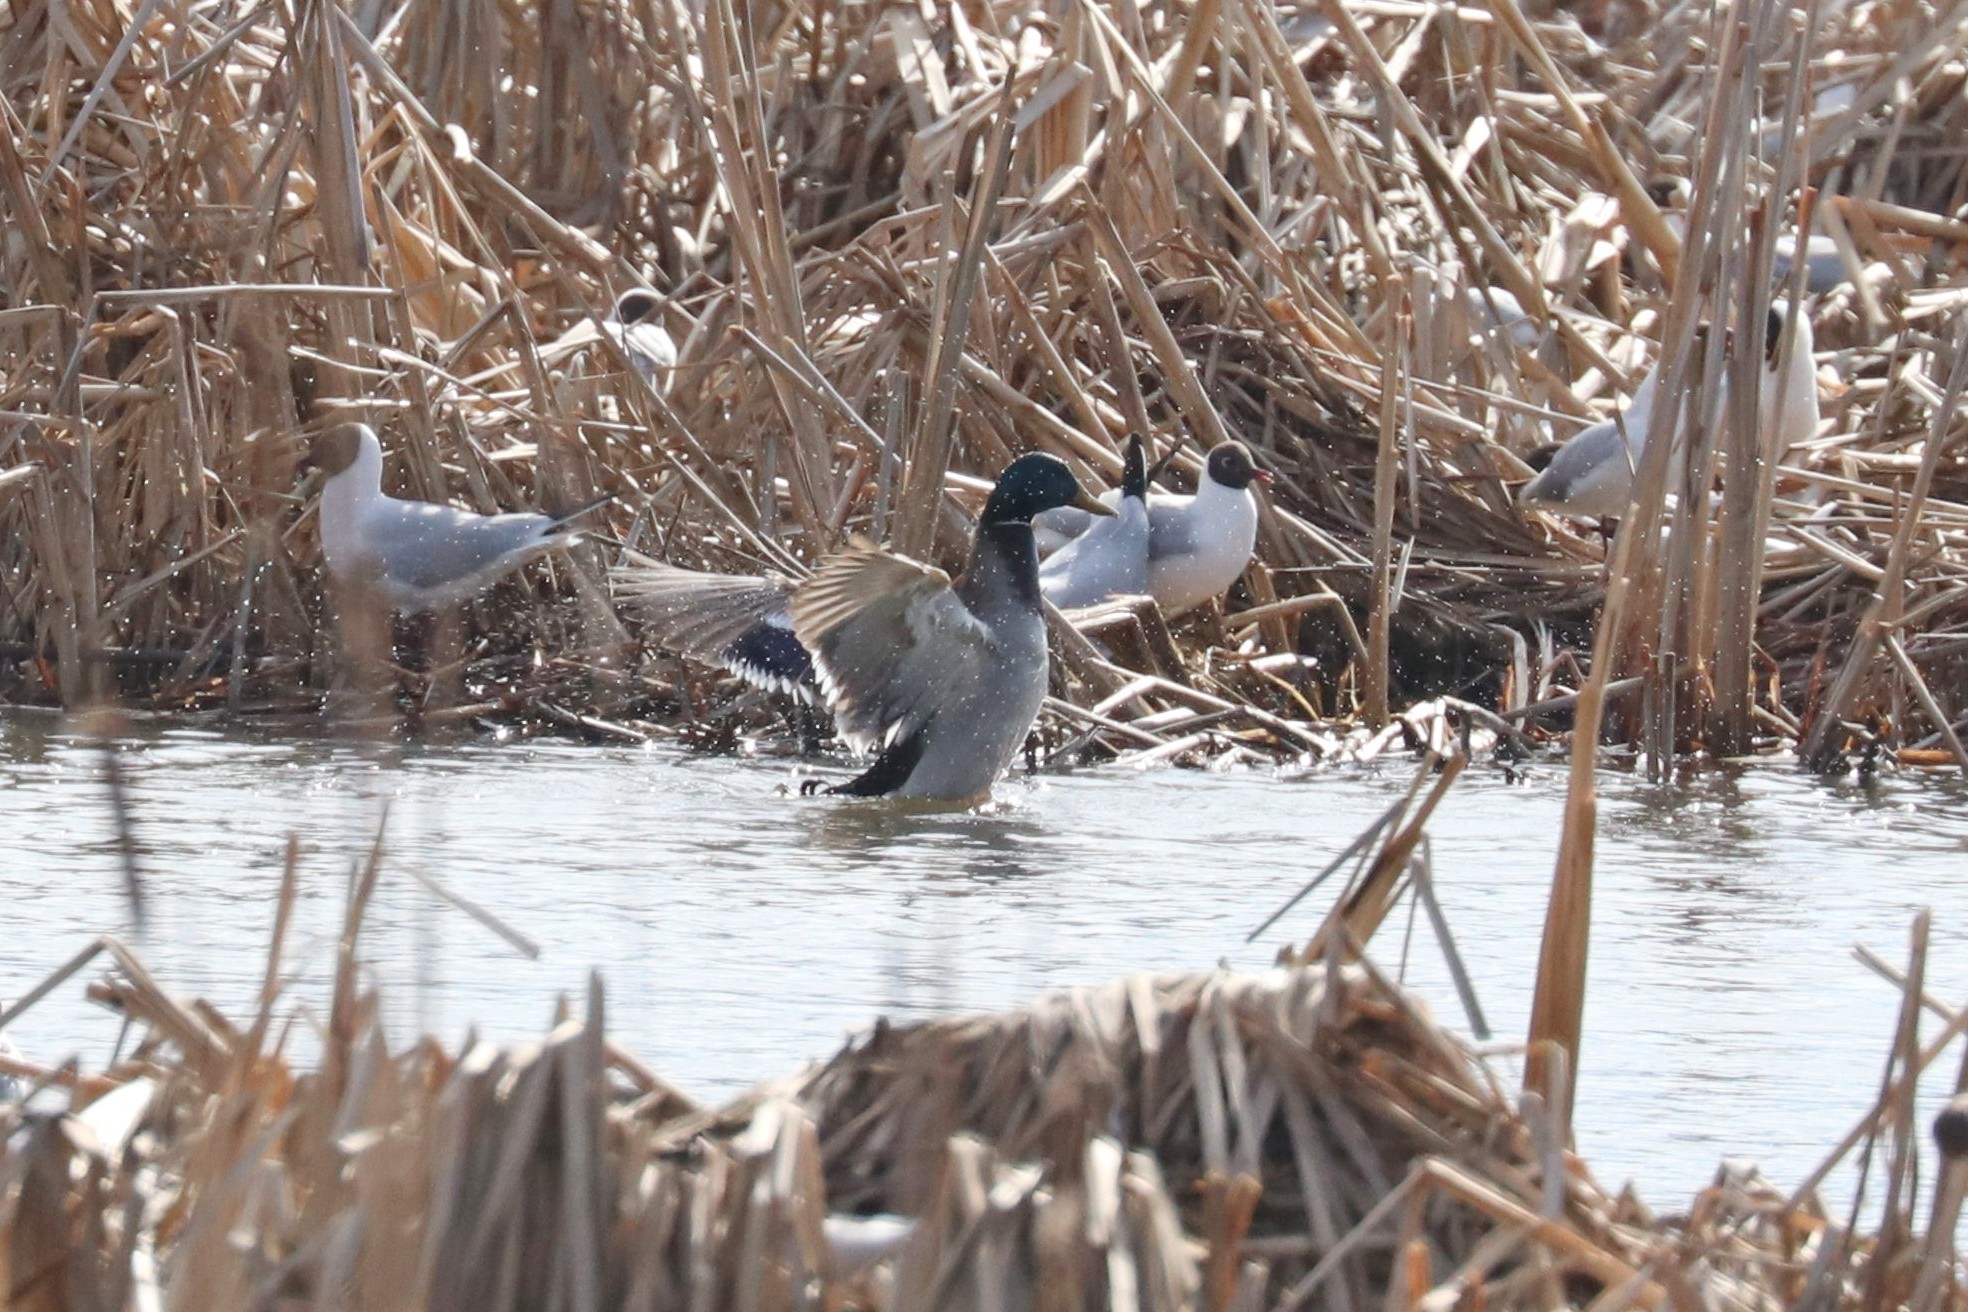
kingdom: Animalia
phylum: Chordata
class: Aves
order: Anseriformes
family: Anatidae
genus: Anas
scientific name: Anas platyrhynchos
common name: Mallard
